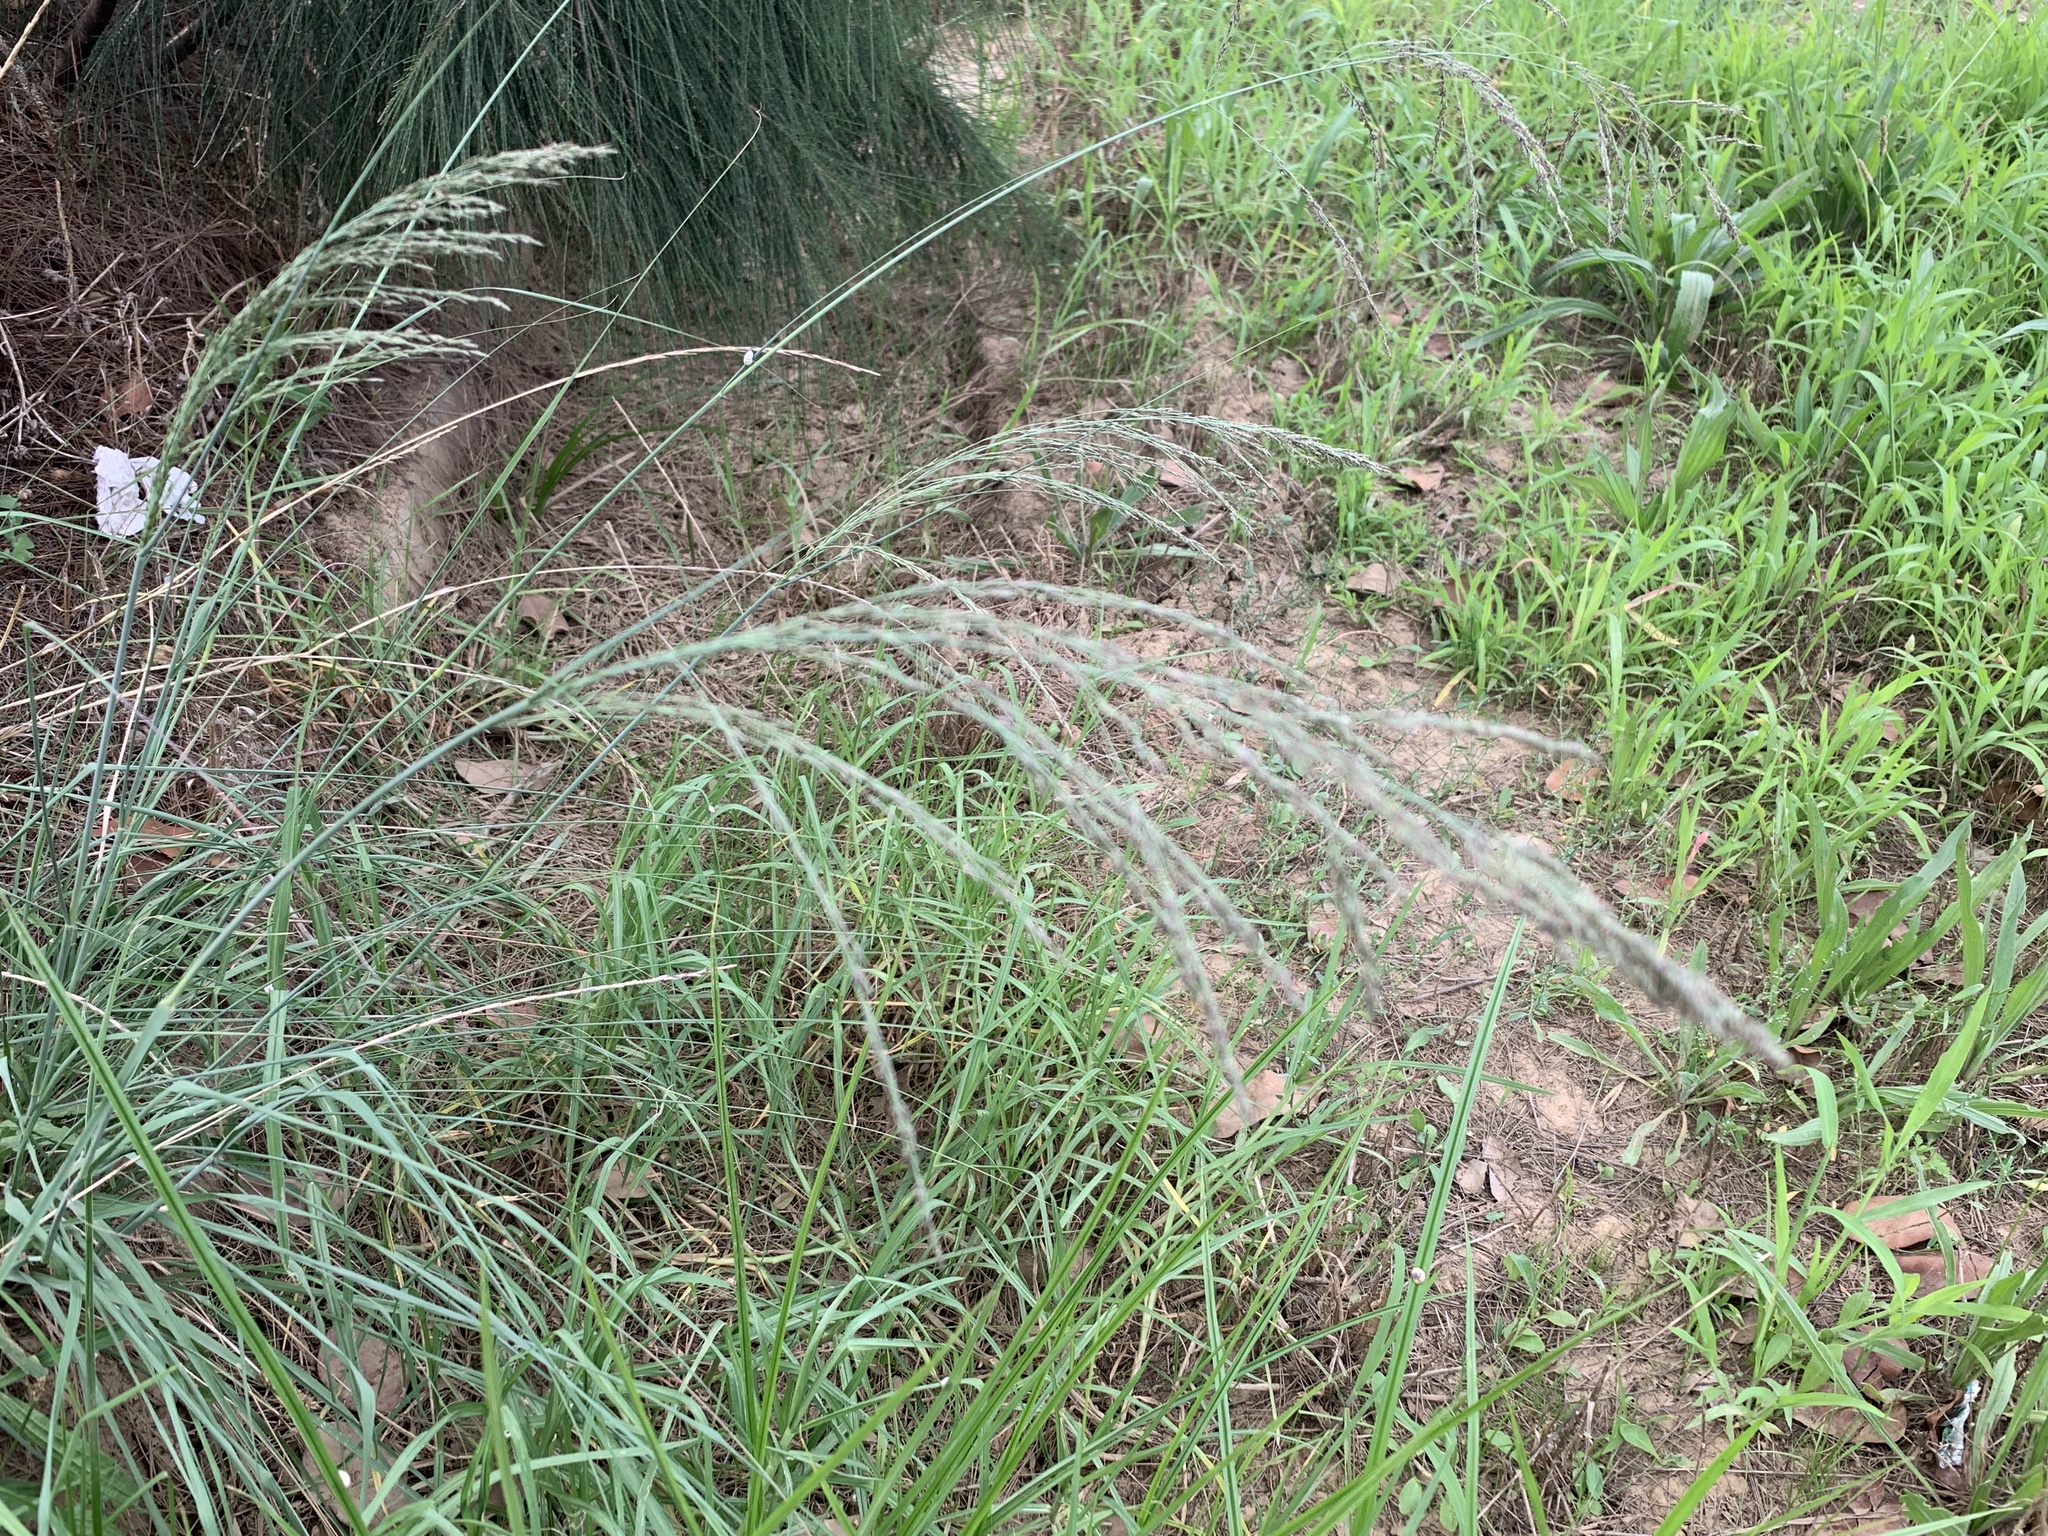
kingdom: Plantae
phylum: Tracheophyta
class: Liliopsida
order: Poales
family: Poaceae
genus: Eragrostis
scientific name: Eragrostis curvula
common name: African love-grass
